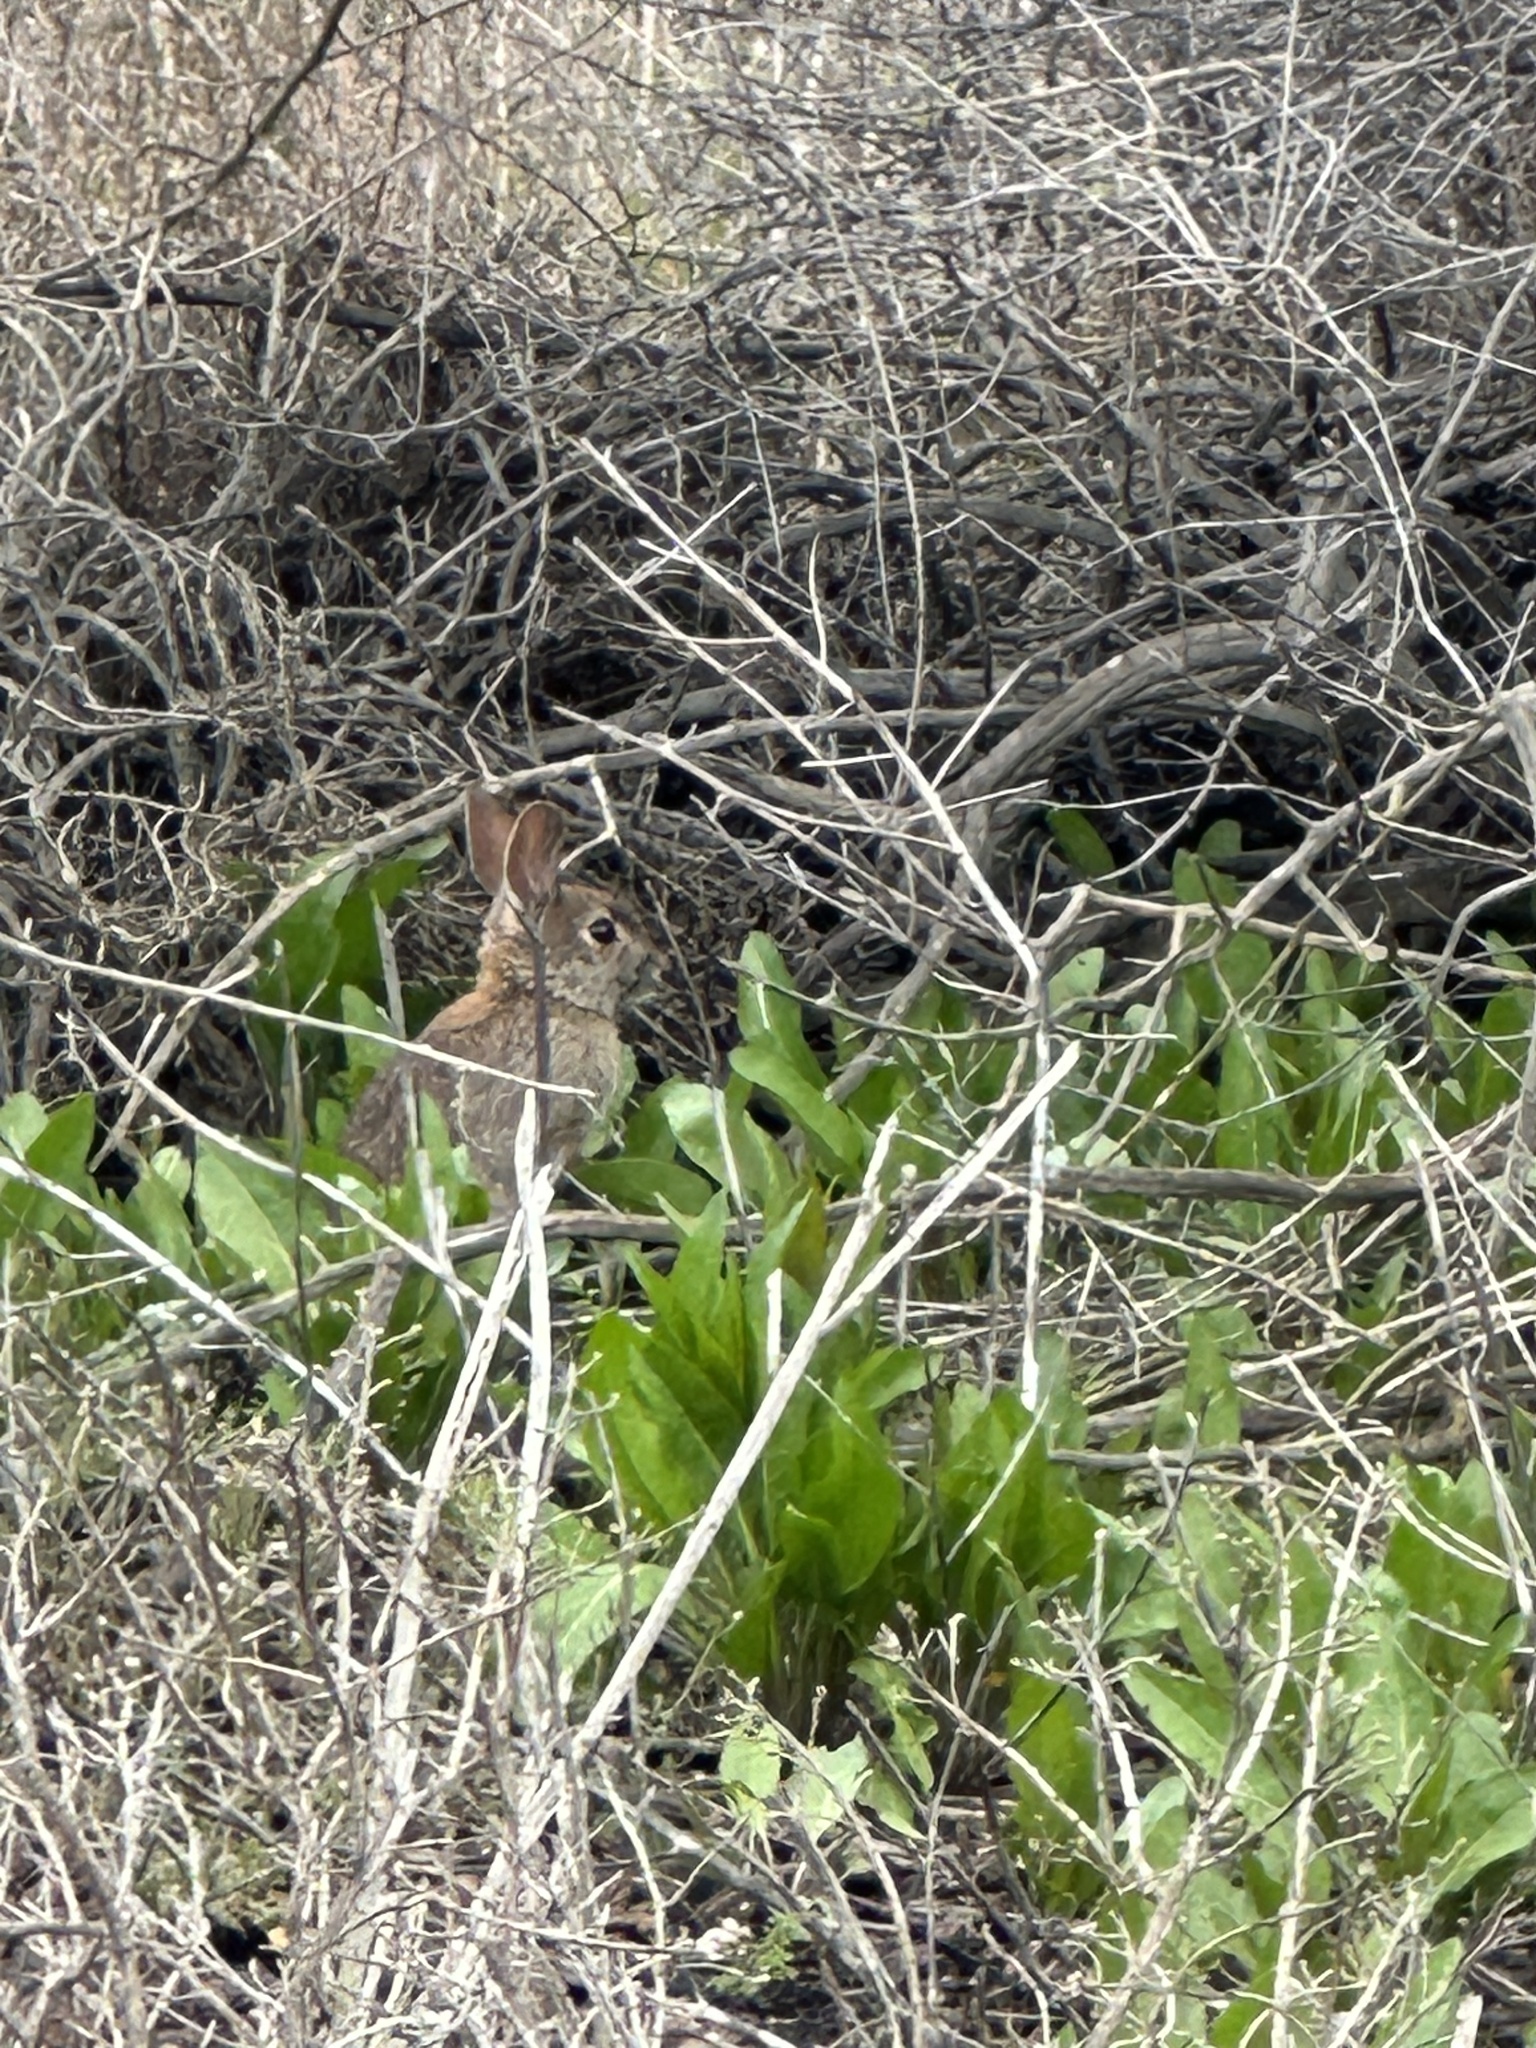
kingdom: Animalia
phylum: Chordata
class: Mammalia
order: Lagomorpha
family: Leporidae
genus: Sylvilagus
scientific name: Sylvilagus bachmani
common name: Brush rabbit
